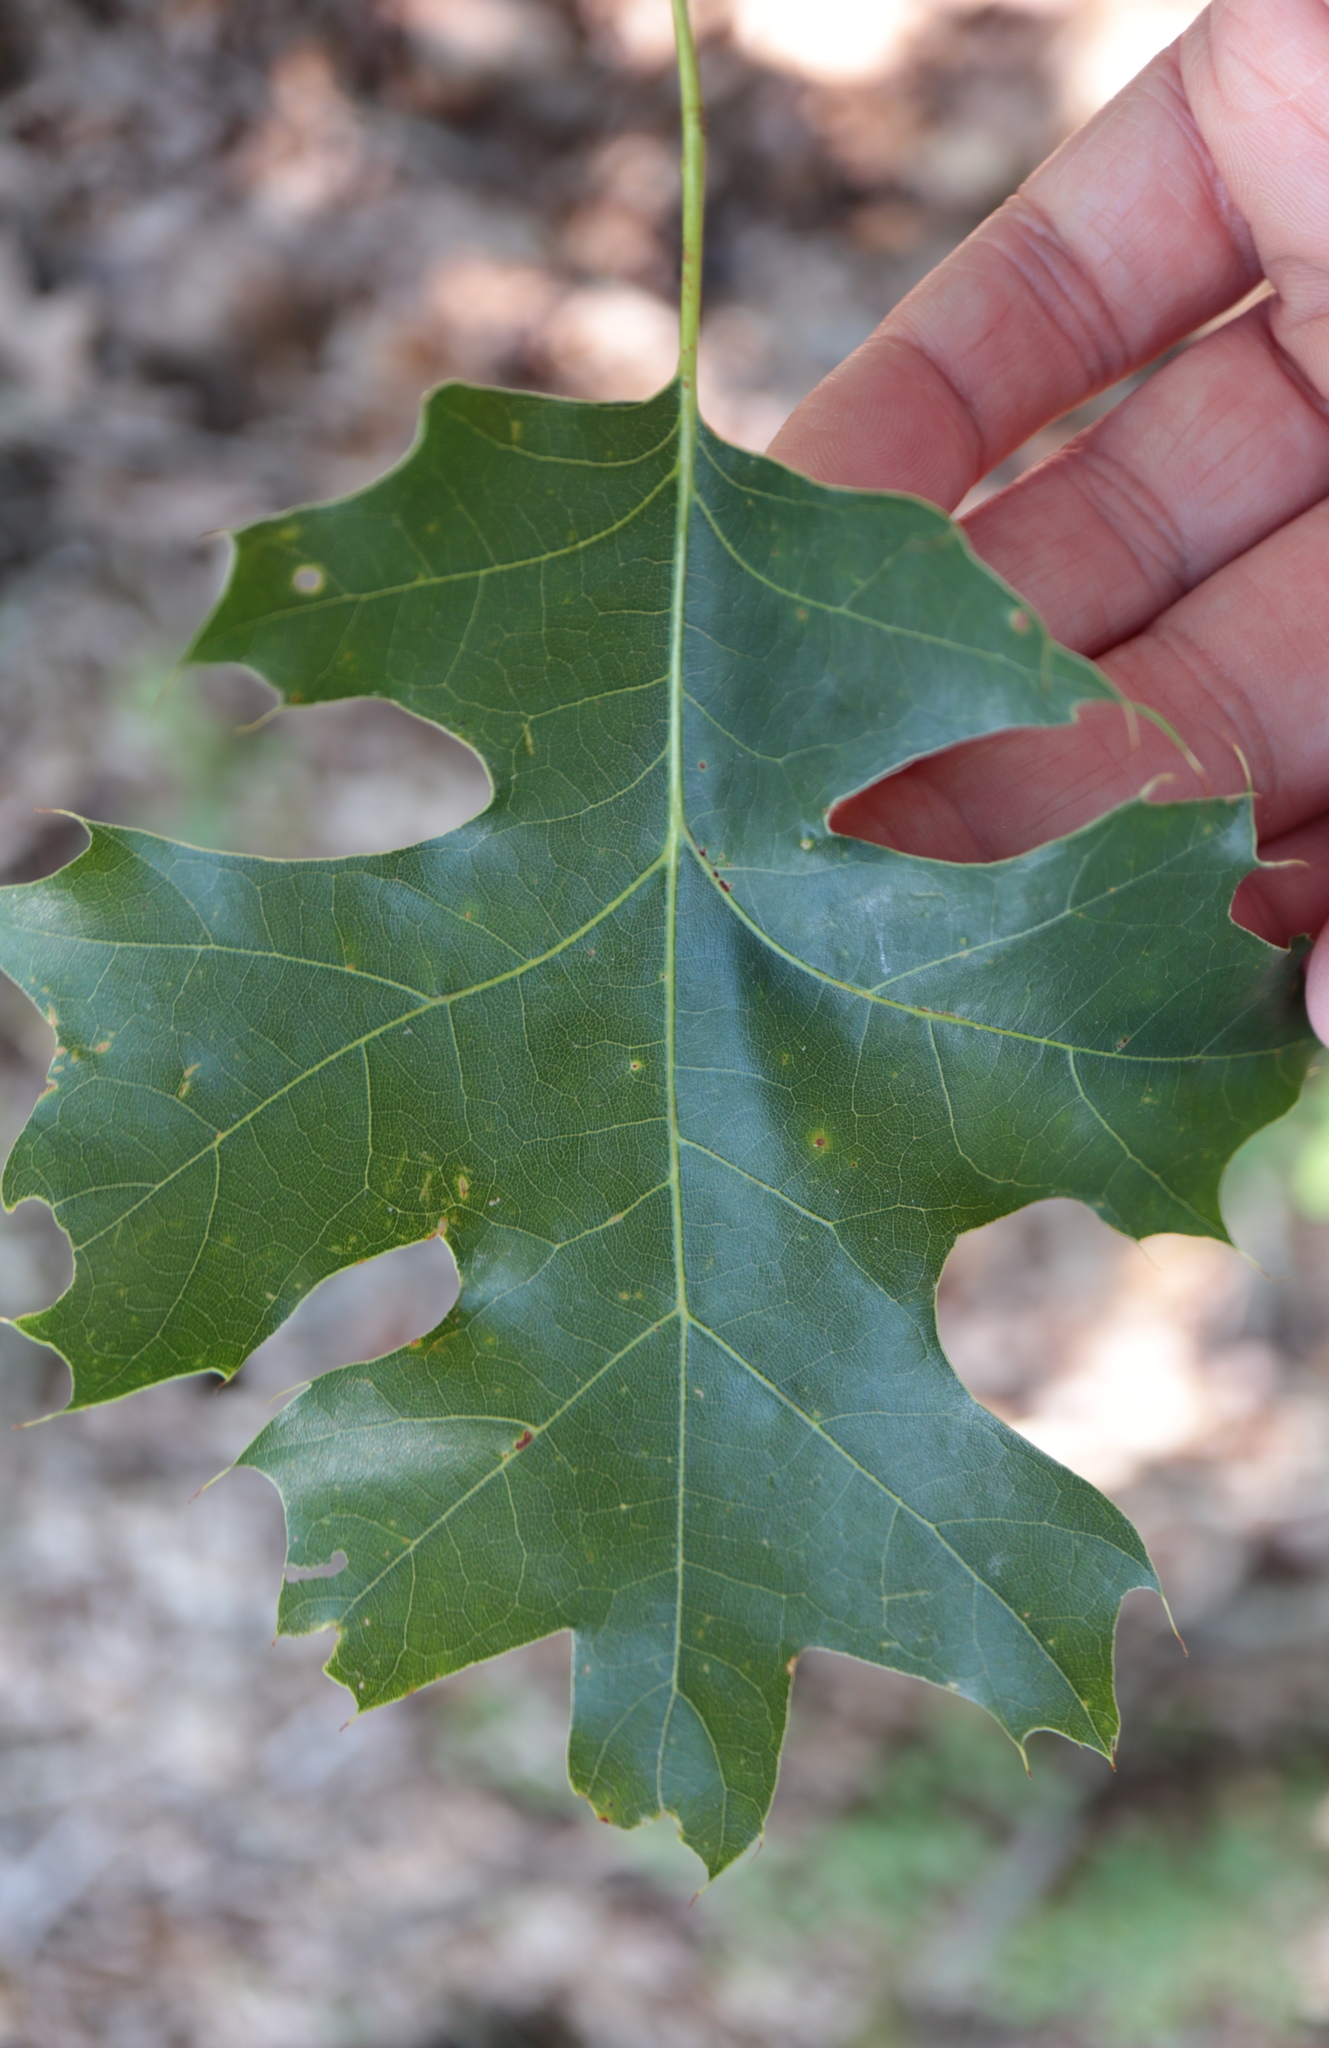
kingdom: Plantae
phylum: Tracheophyta
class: Magnoliopsida
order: Fagales
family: Fagaceae
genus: Quercus
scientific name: Quercus coccinea
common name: Scarlet oak
